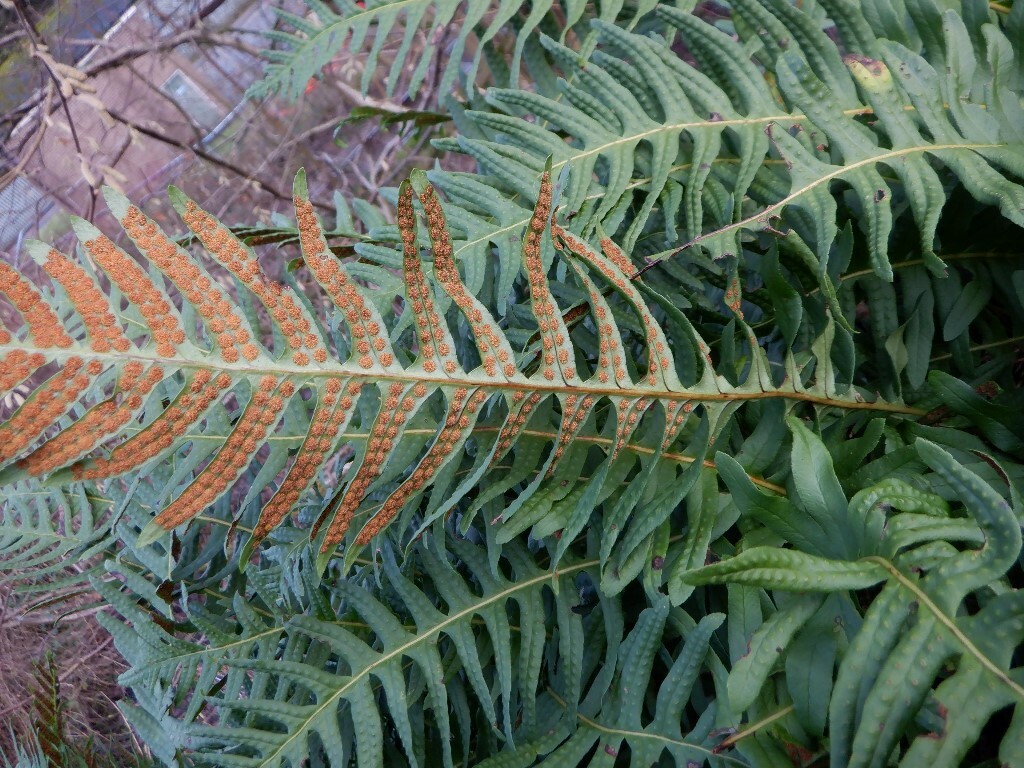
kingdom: Plantae
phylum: Tracheophyta
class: Polypodiopsida
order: Polypodiales
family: Polypodiaceae
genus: Polypodium
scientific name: Polypodium
